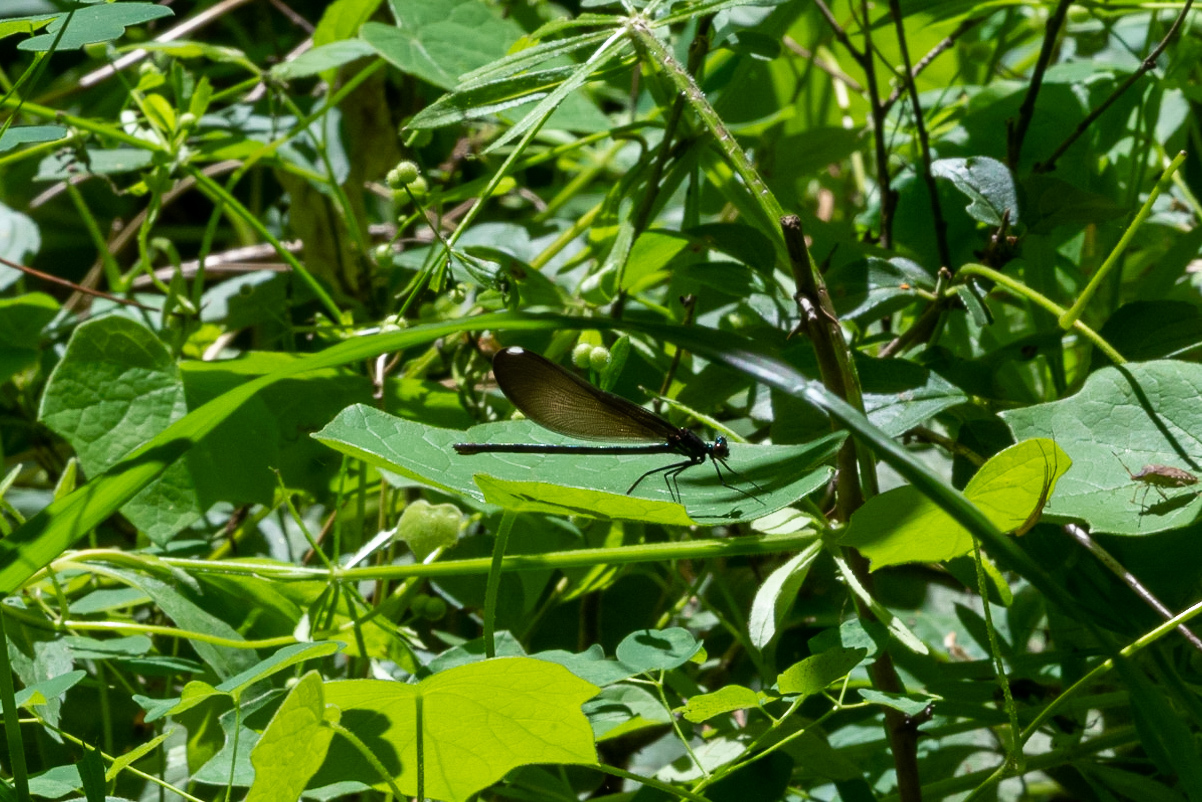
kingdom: Animalia
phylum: Arthropoda
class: Insecta
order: Odonata
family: Calopterygidae
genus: Calopteryx
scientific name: Calopteryx maculata
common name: Ebony jewelwing
